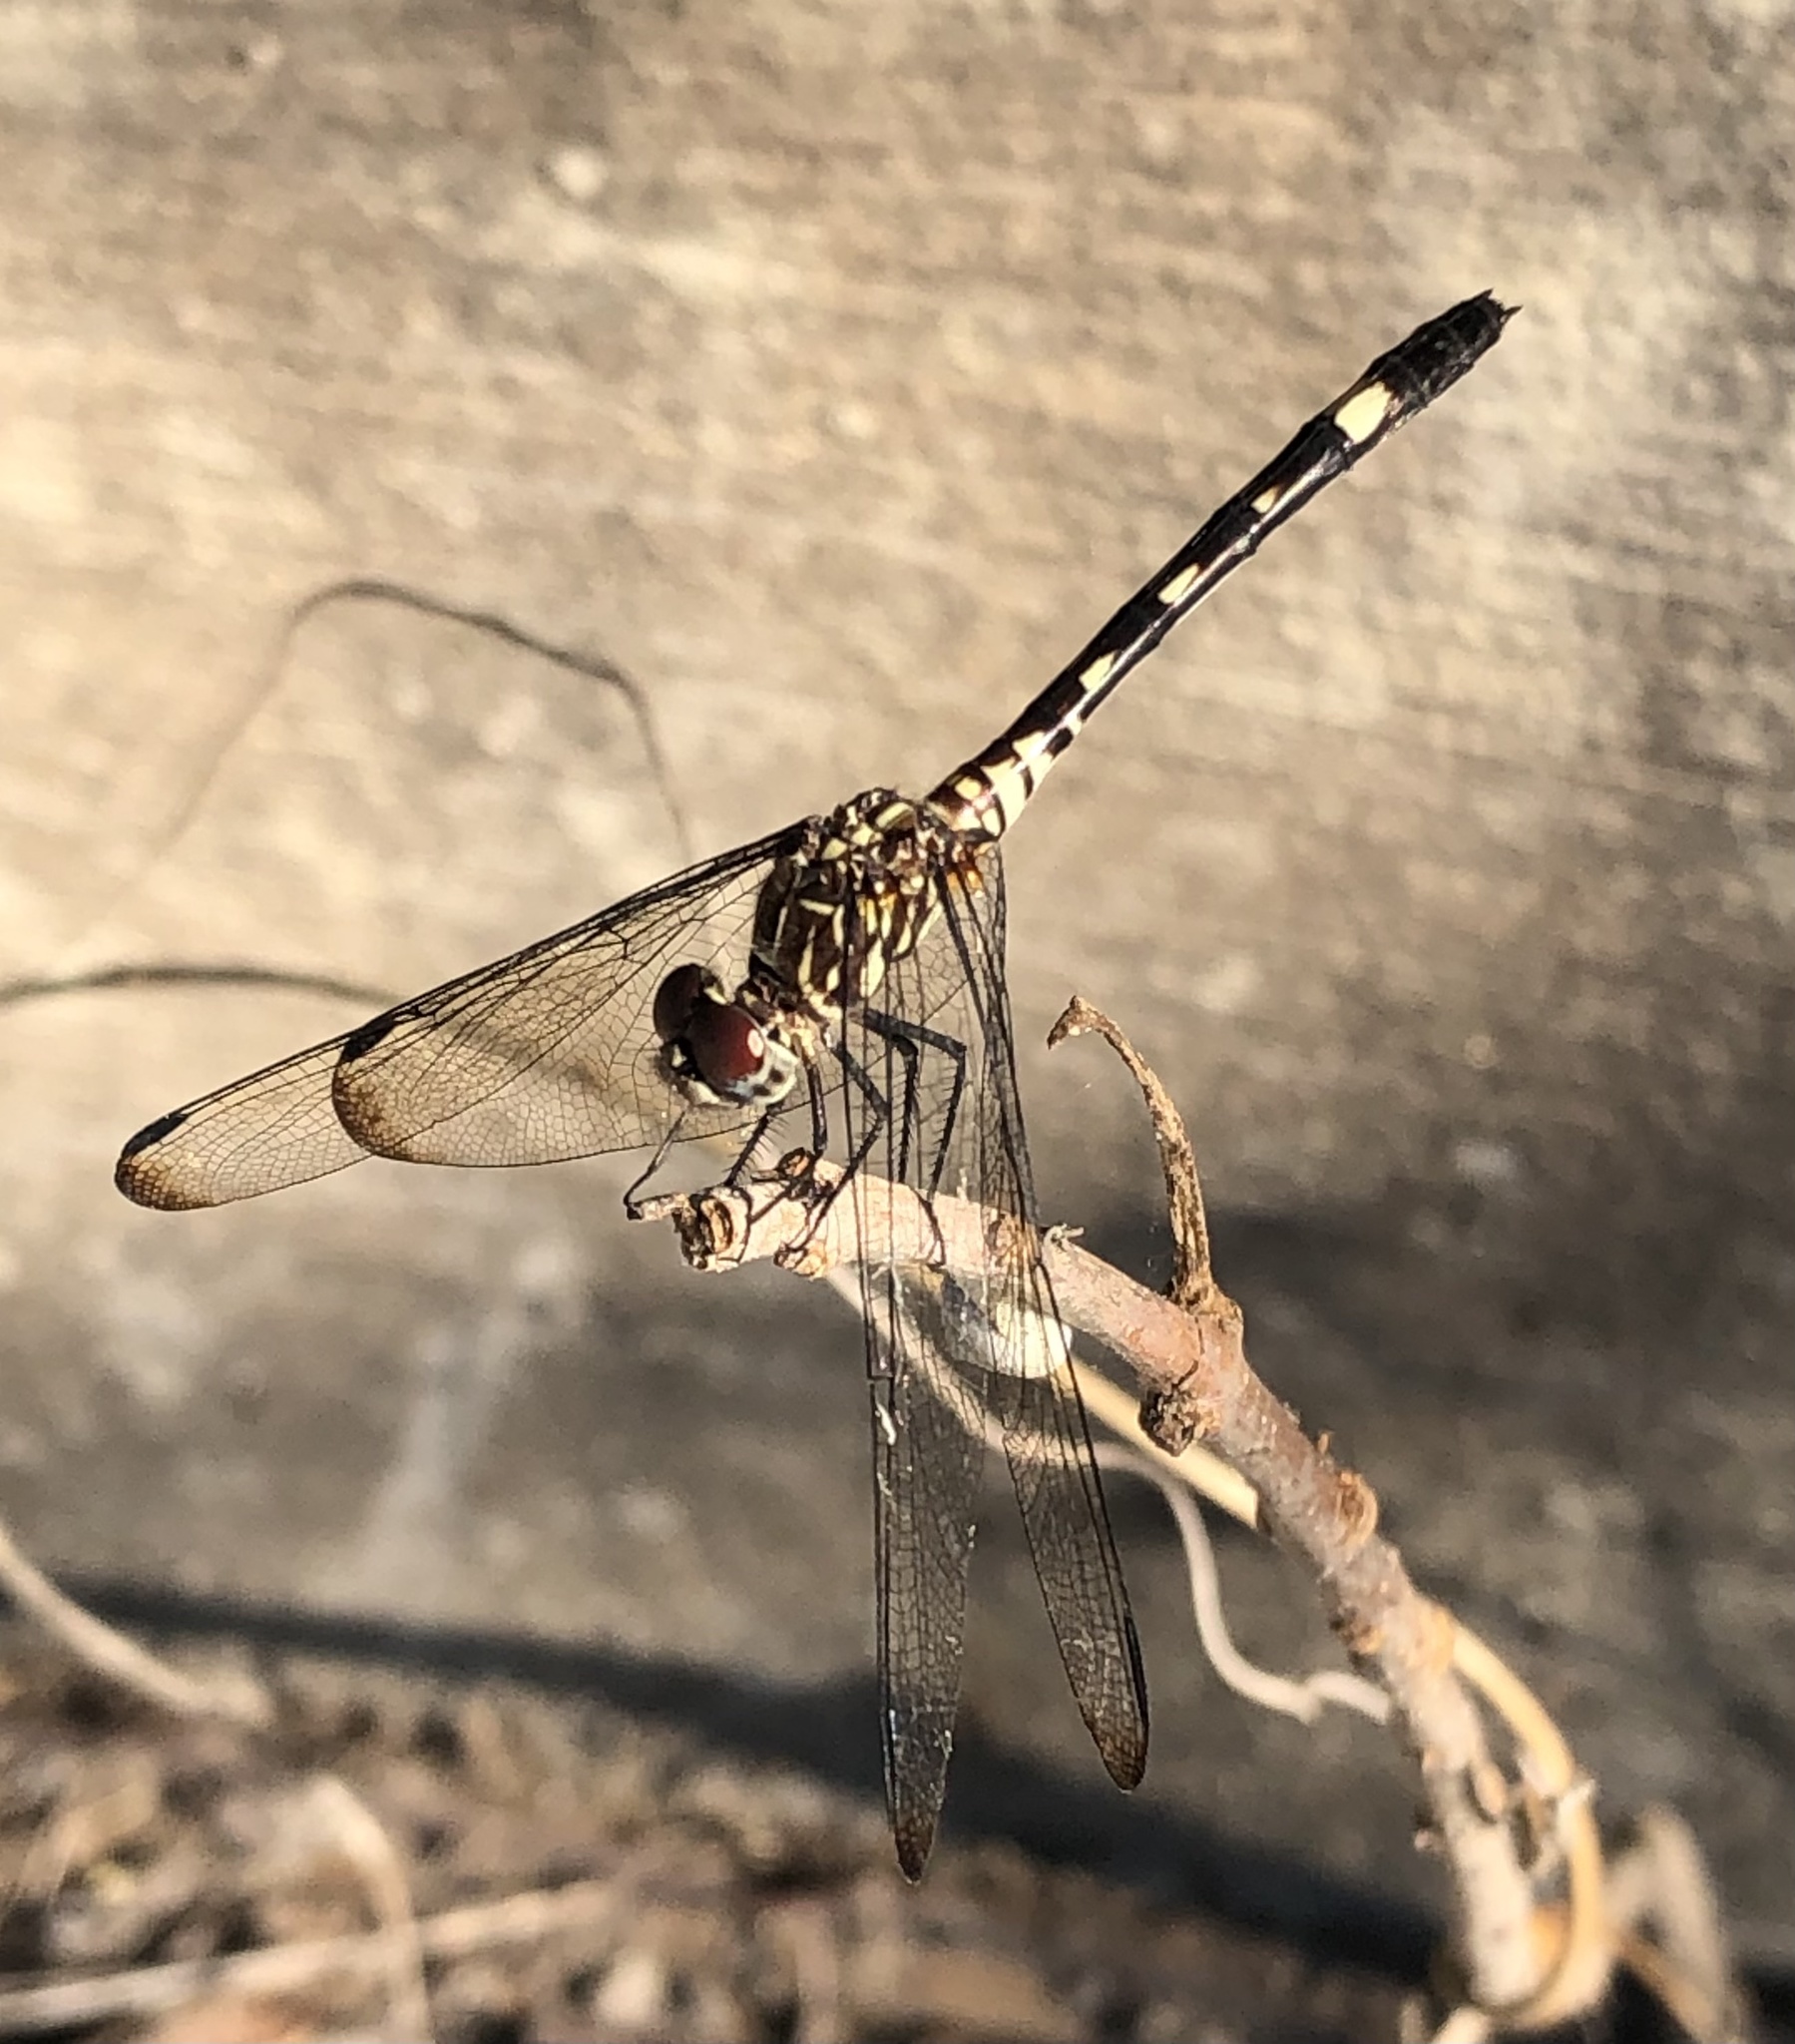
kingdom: Animalia
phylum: Arthropoda
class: Insecta
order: Odonata
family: Libellulidae
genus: Dythemis
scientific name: Dythemis velox
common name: Swift setwing
